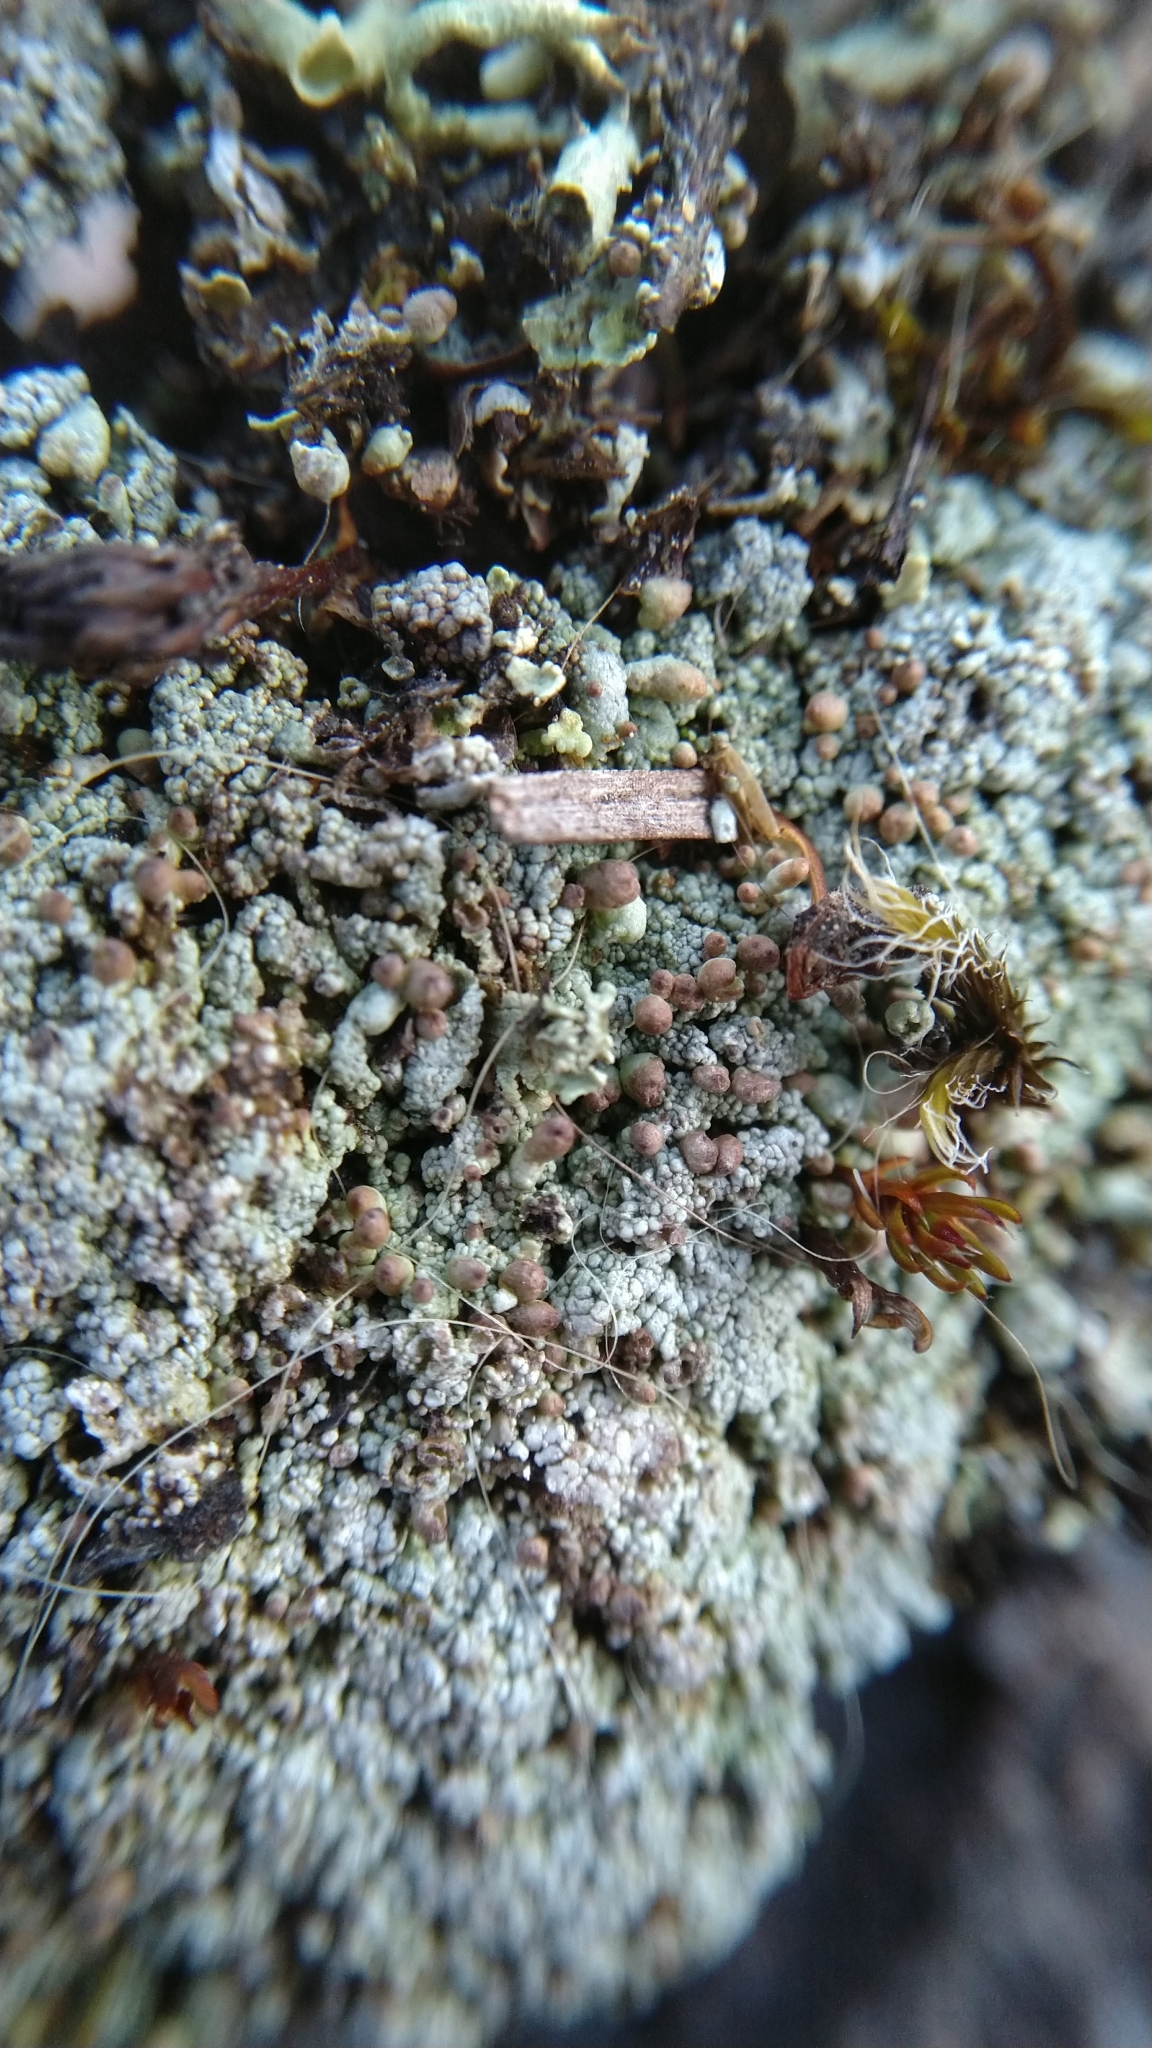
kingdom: Fungi
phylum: Ascomycota
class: Lecanoromycetes
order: Lecanorales
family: Cladoniaceae
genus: Pycnothelia
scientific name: Pycnothelia papillaria
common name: Nipple lichen
